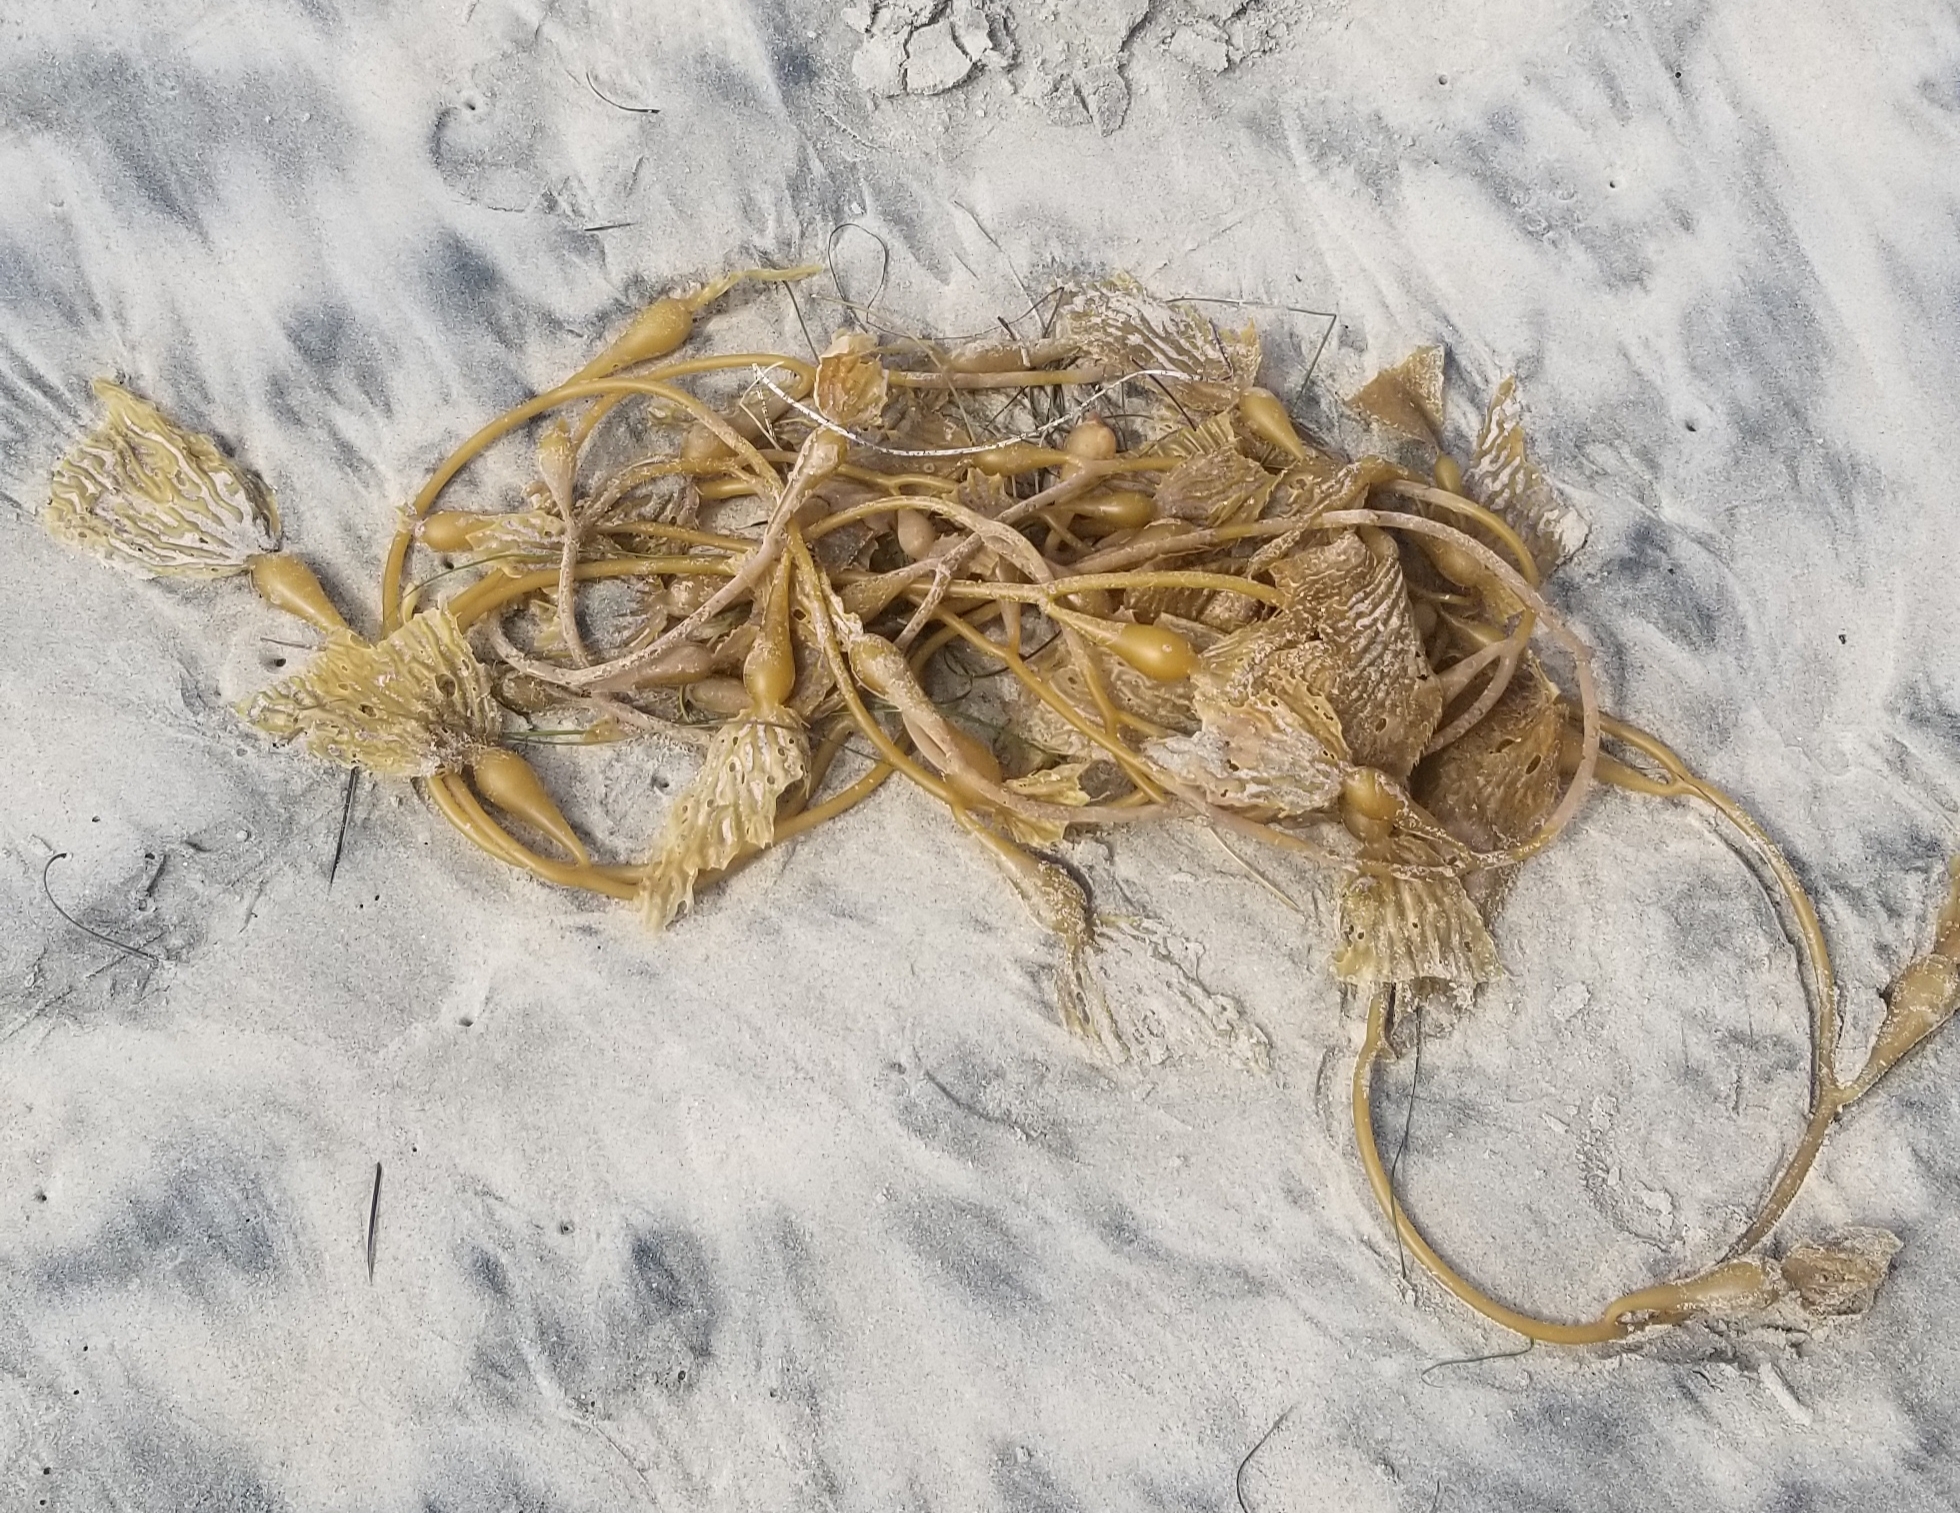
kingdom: Chromista
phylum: Ochrophyta
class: Phaeophyceae
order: Laminariales
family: Laminariaceae
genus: Macrocystis
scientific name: Macrocystis pyrifera
